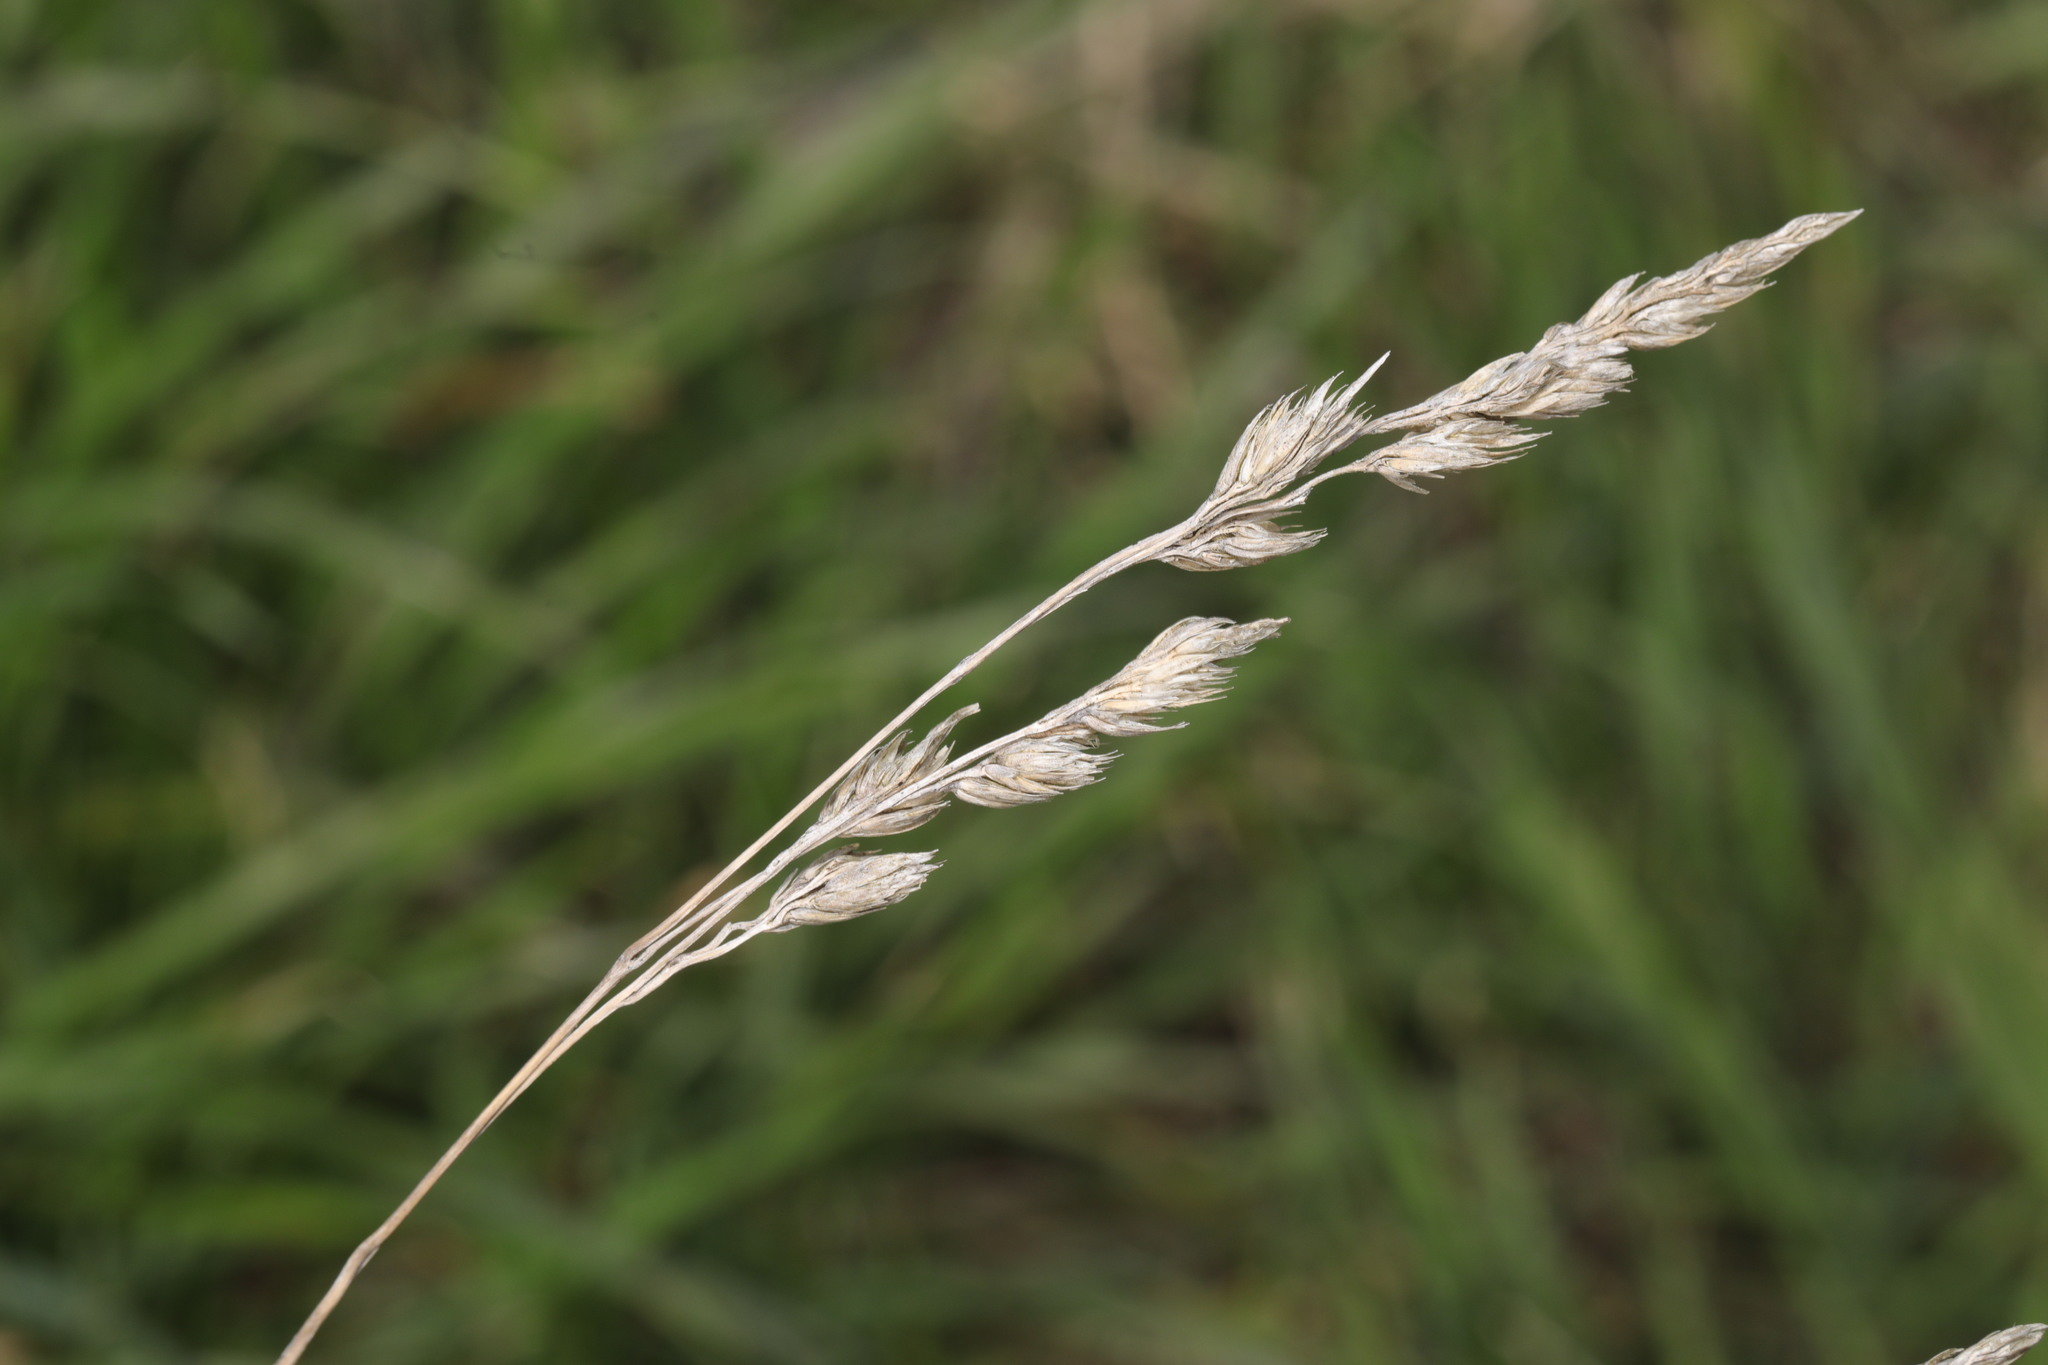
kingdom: Plantae
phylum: Tracheophyta
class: Liliopsida
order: Poales
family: Poaceae
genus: Dactylis
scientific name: Dactylis glomerata
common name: Orchardgrass
